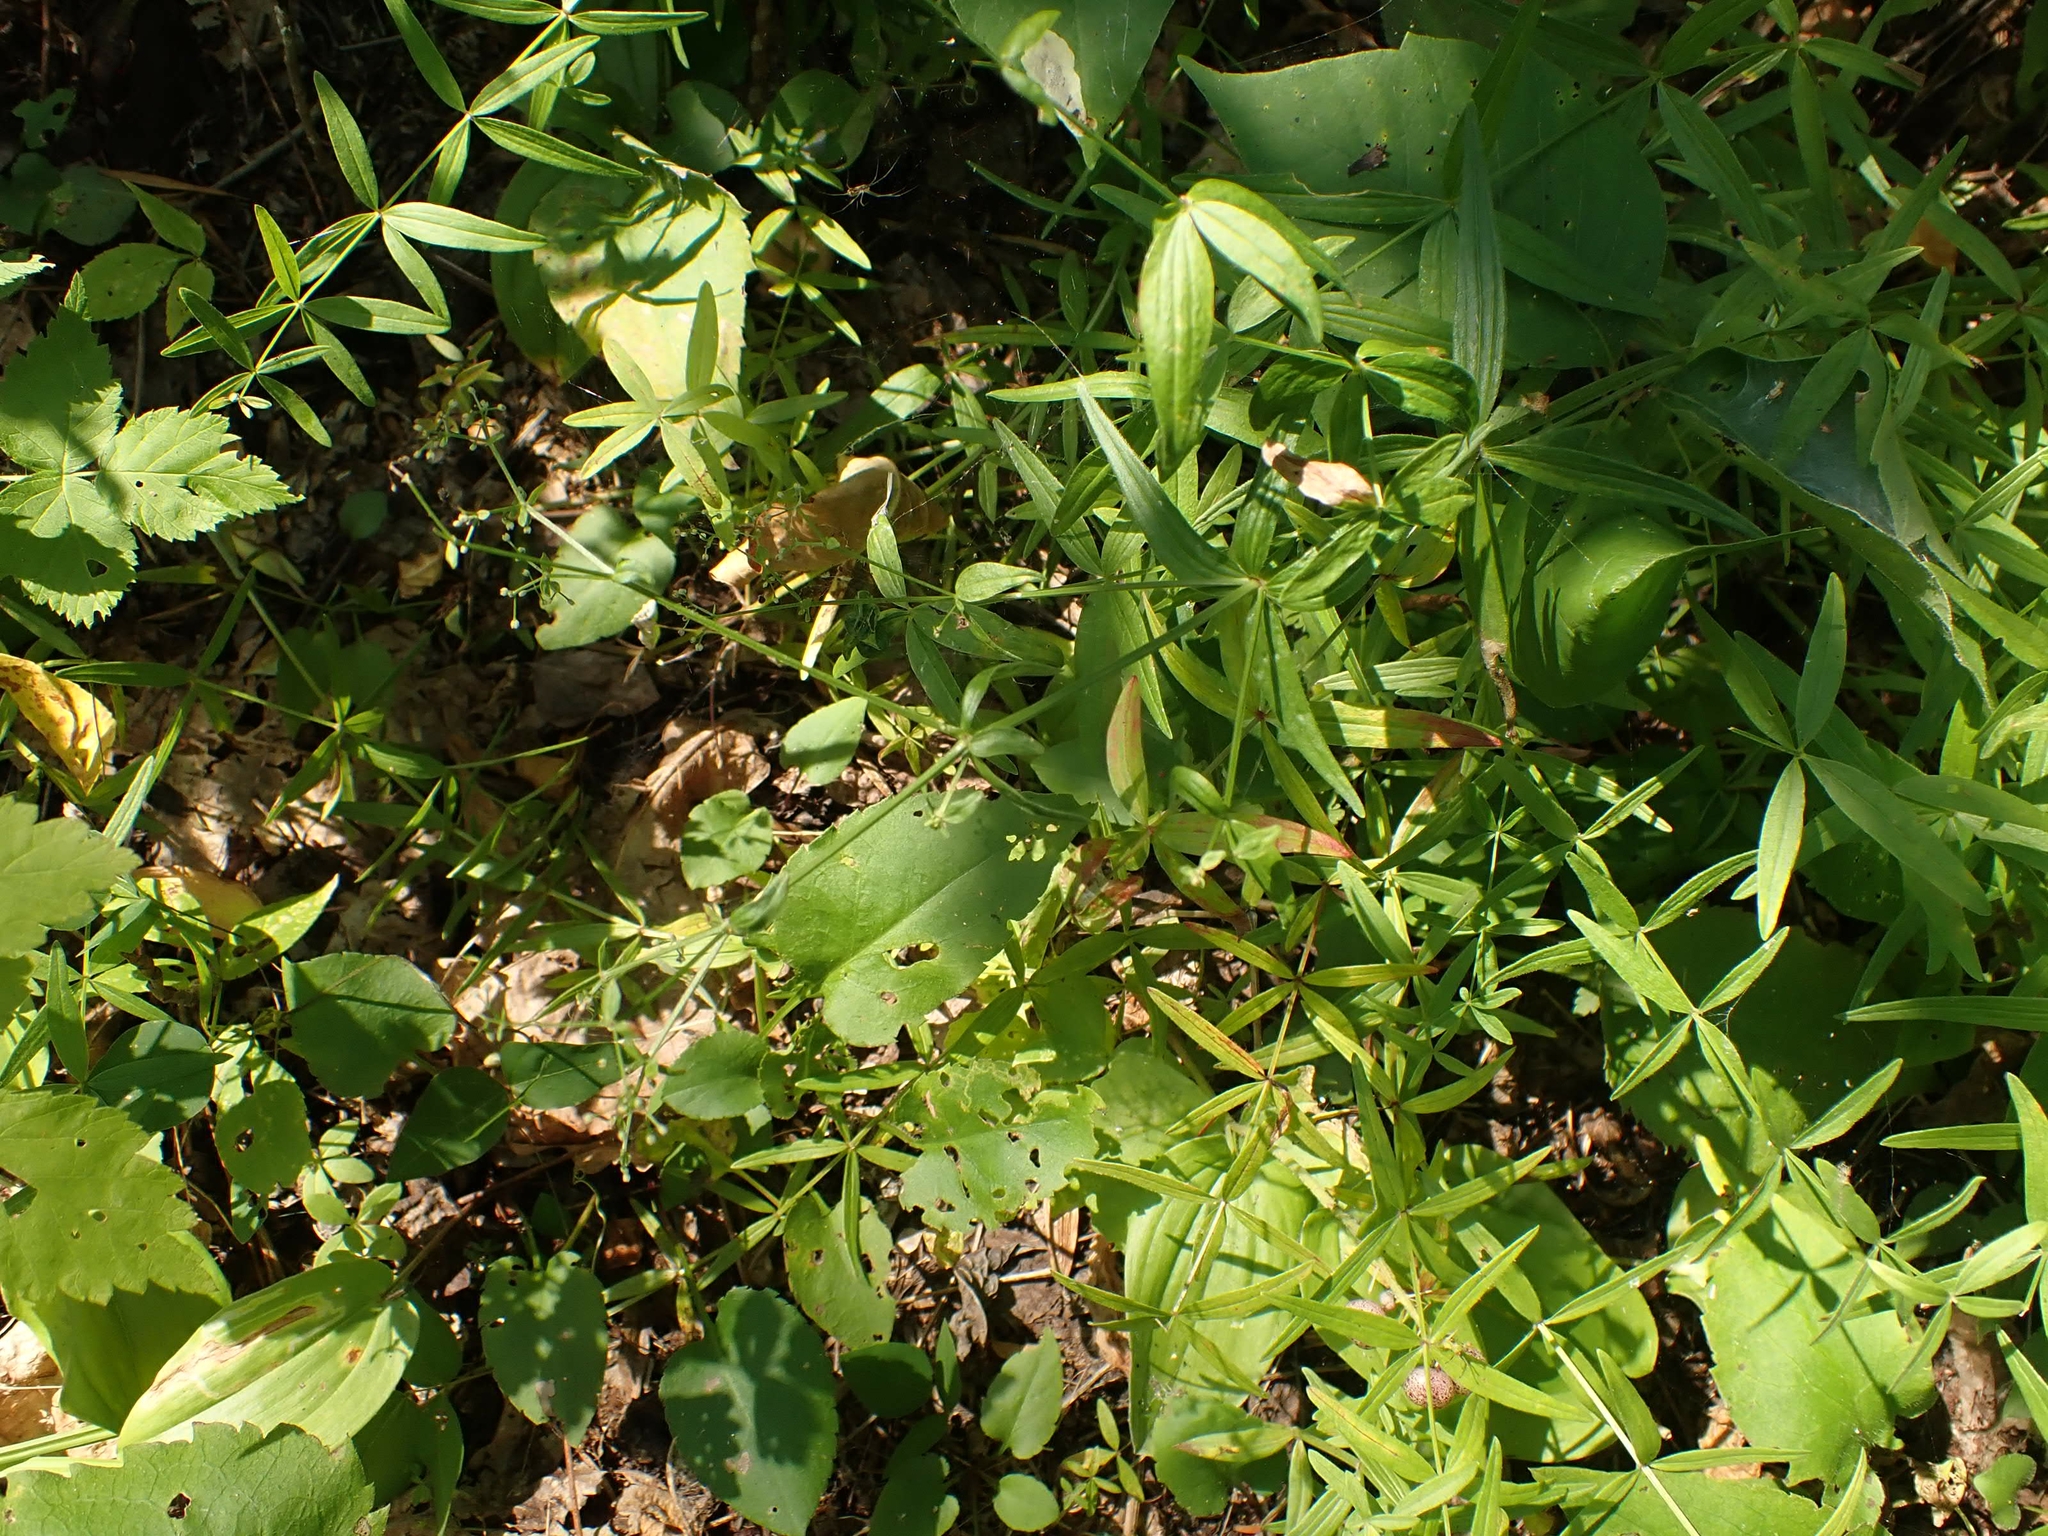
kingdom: Plantae
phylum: Tracheophyta
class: Magnoliopsida
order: Gentianales
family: Rubiaceae
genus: Galium
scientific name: Galium boreale
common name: Northern bedstraw
